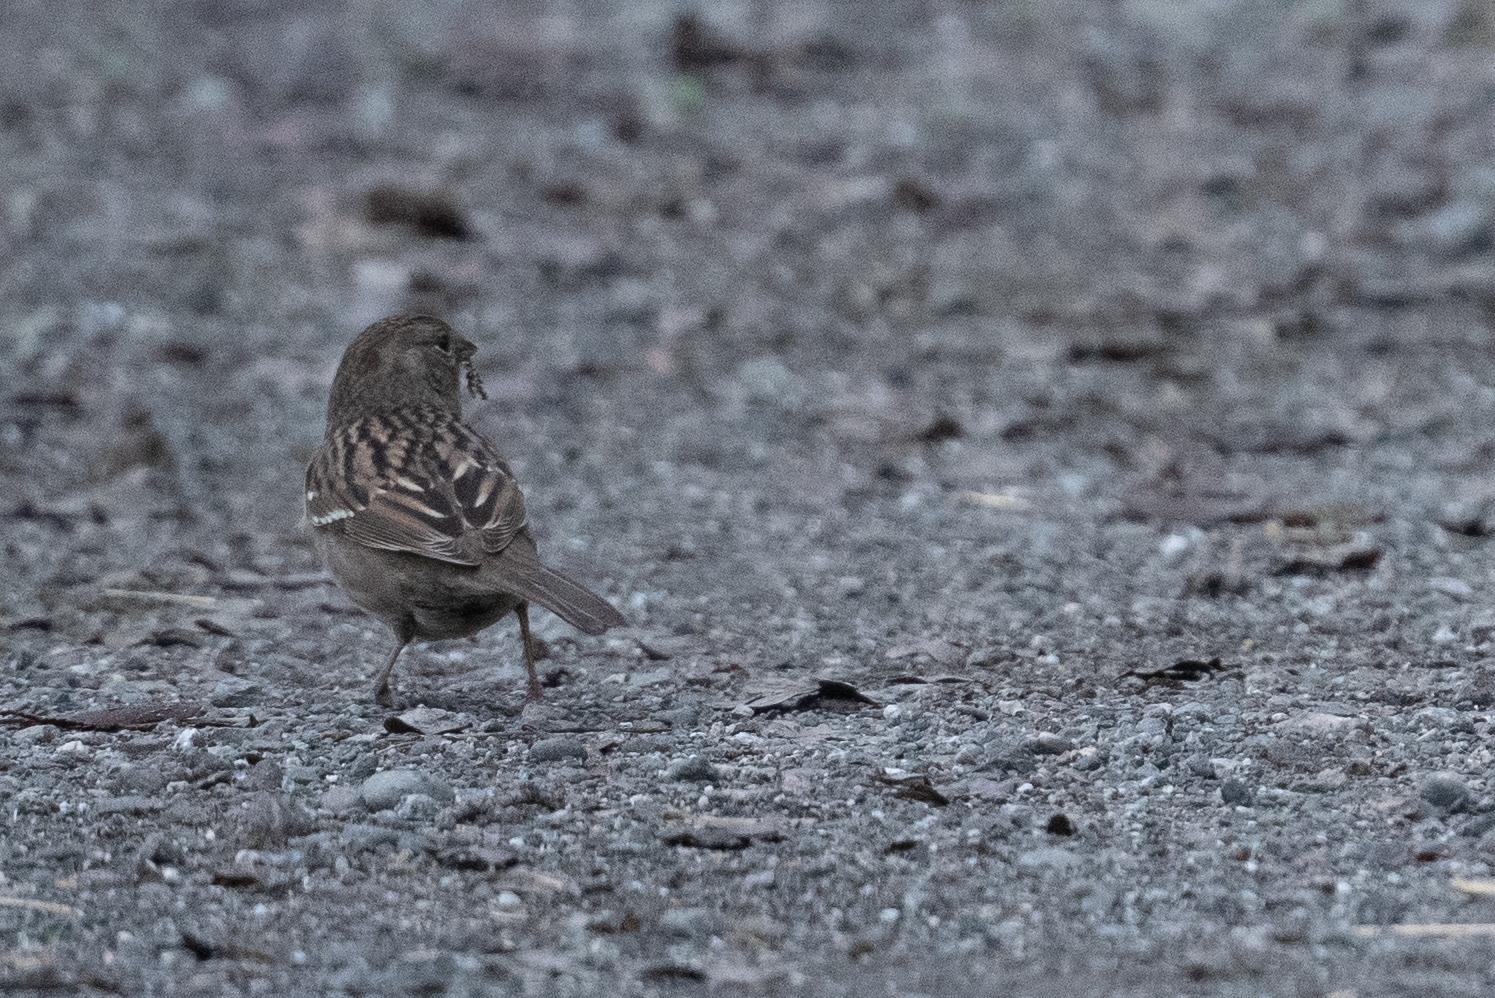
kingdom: Animalia
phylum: Chordata
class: Aves
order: Passeriformes
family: Passerellidae
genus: Zonotrichia
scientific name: Zonotrichia atricapilla
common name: Golden-crowned sparrow
